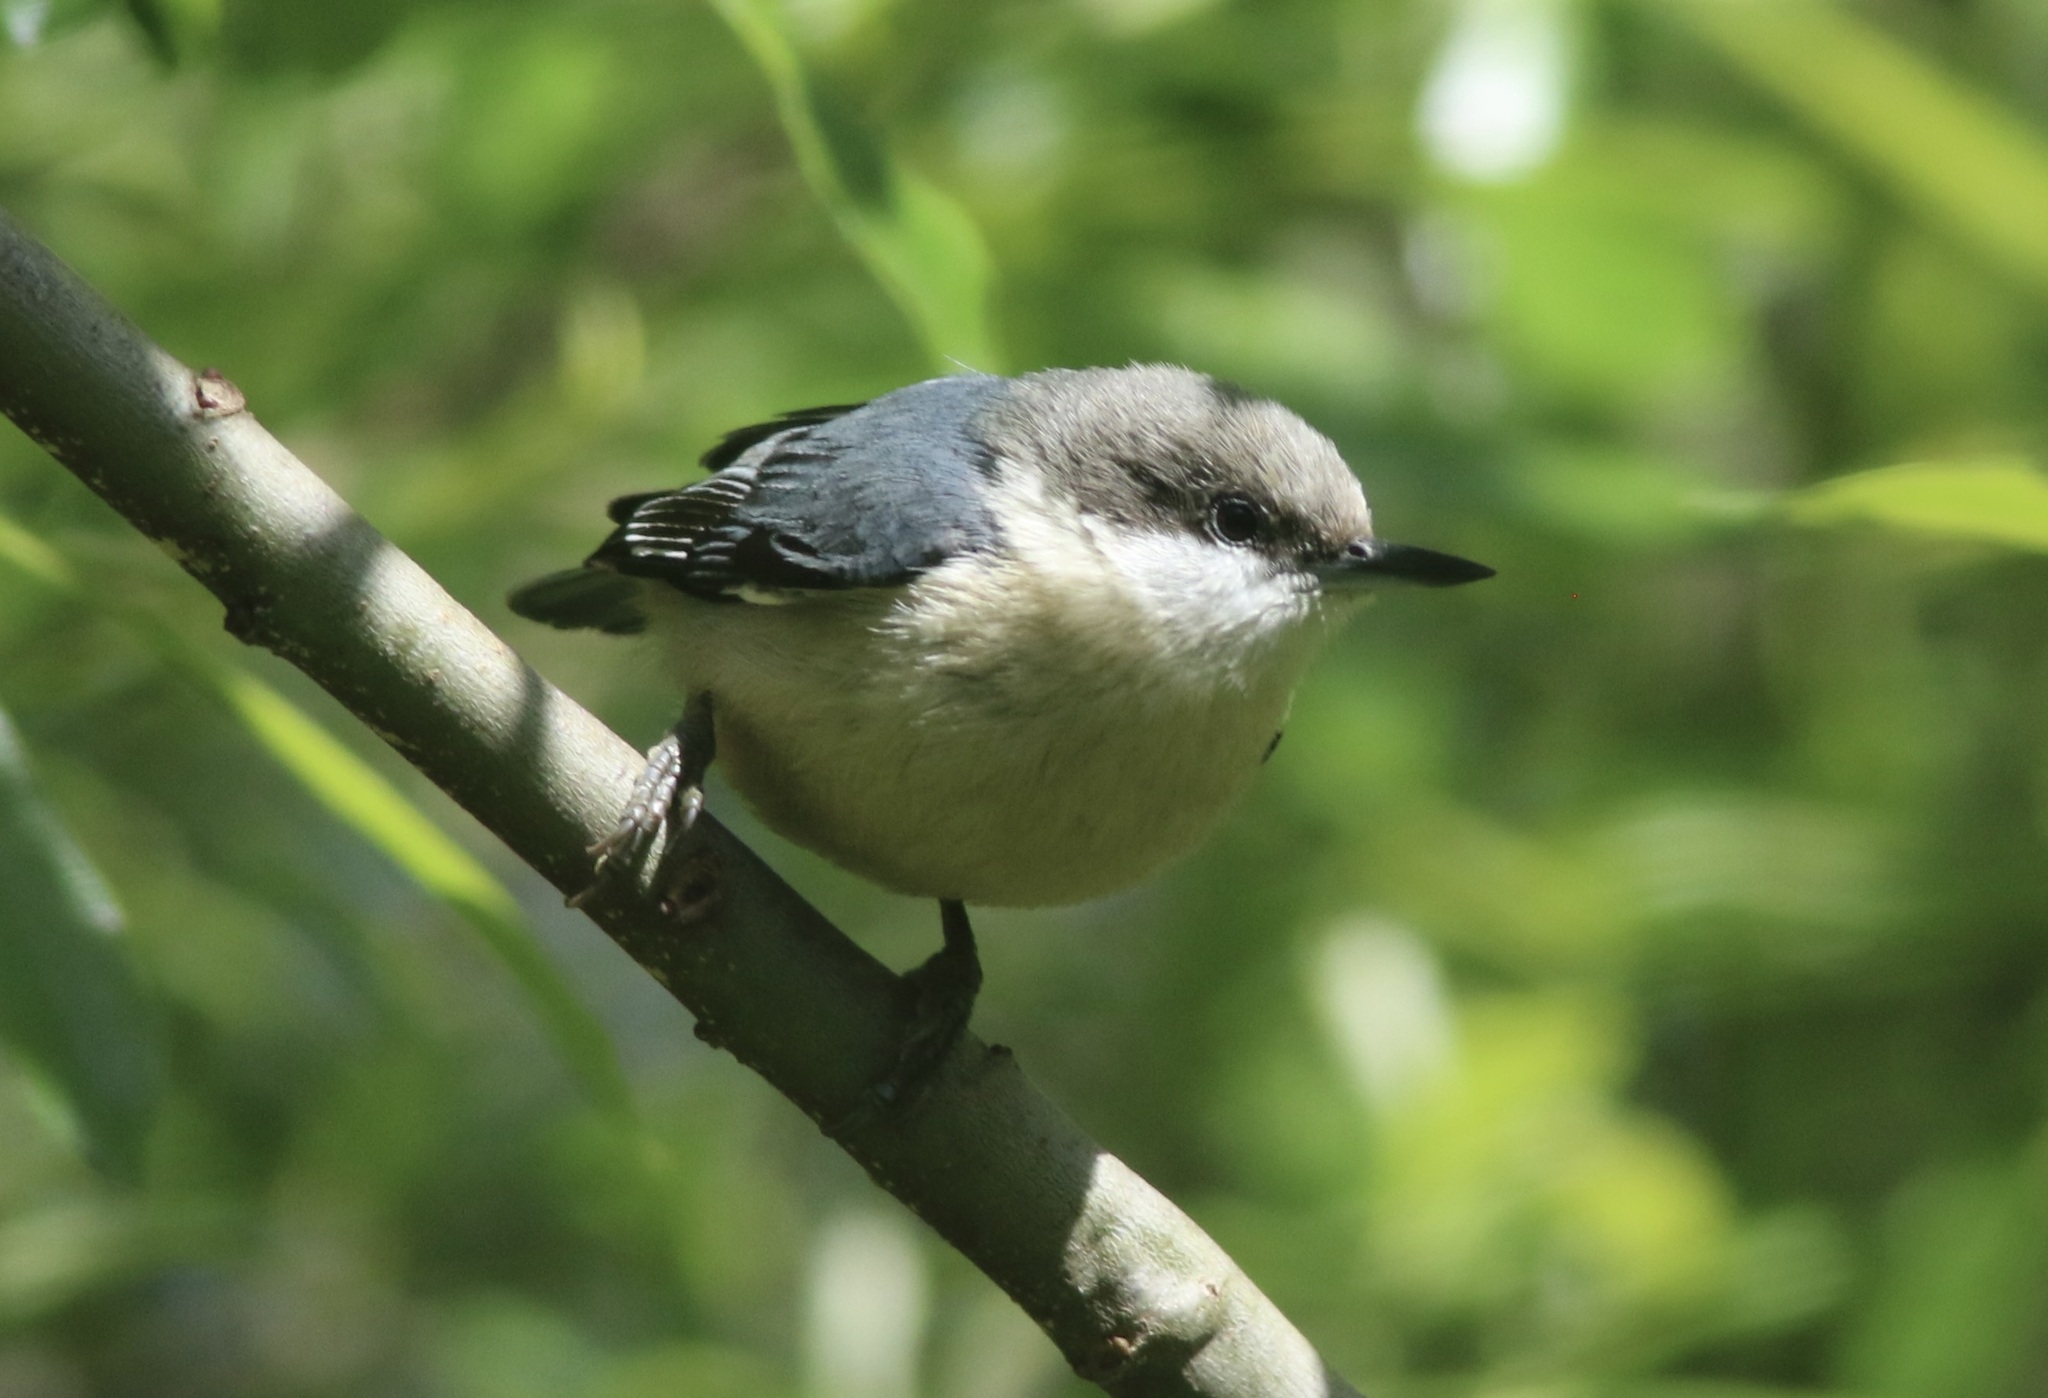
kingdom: Animalia
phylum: Chordata
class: Aves
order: Passeriformes
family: Sittidae
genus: Sitta
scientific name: Sitta pygmaea
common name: Pygmy nuthatch
